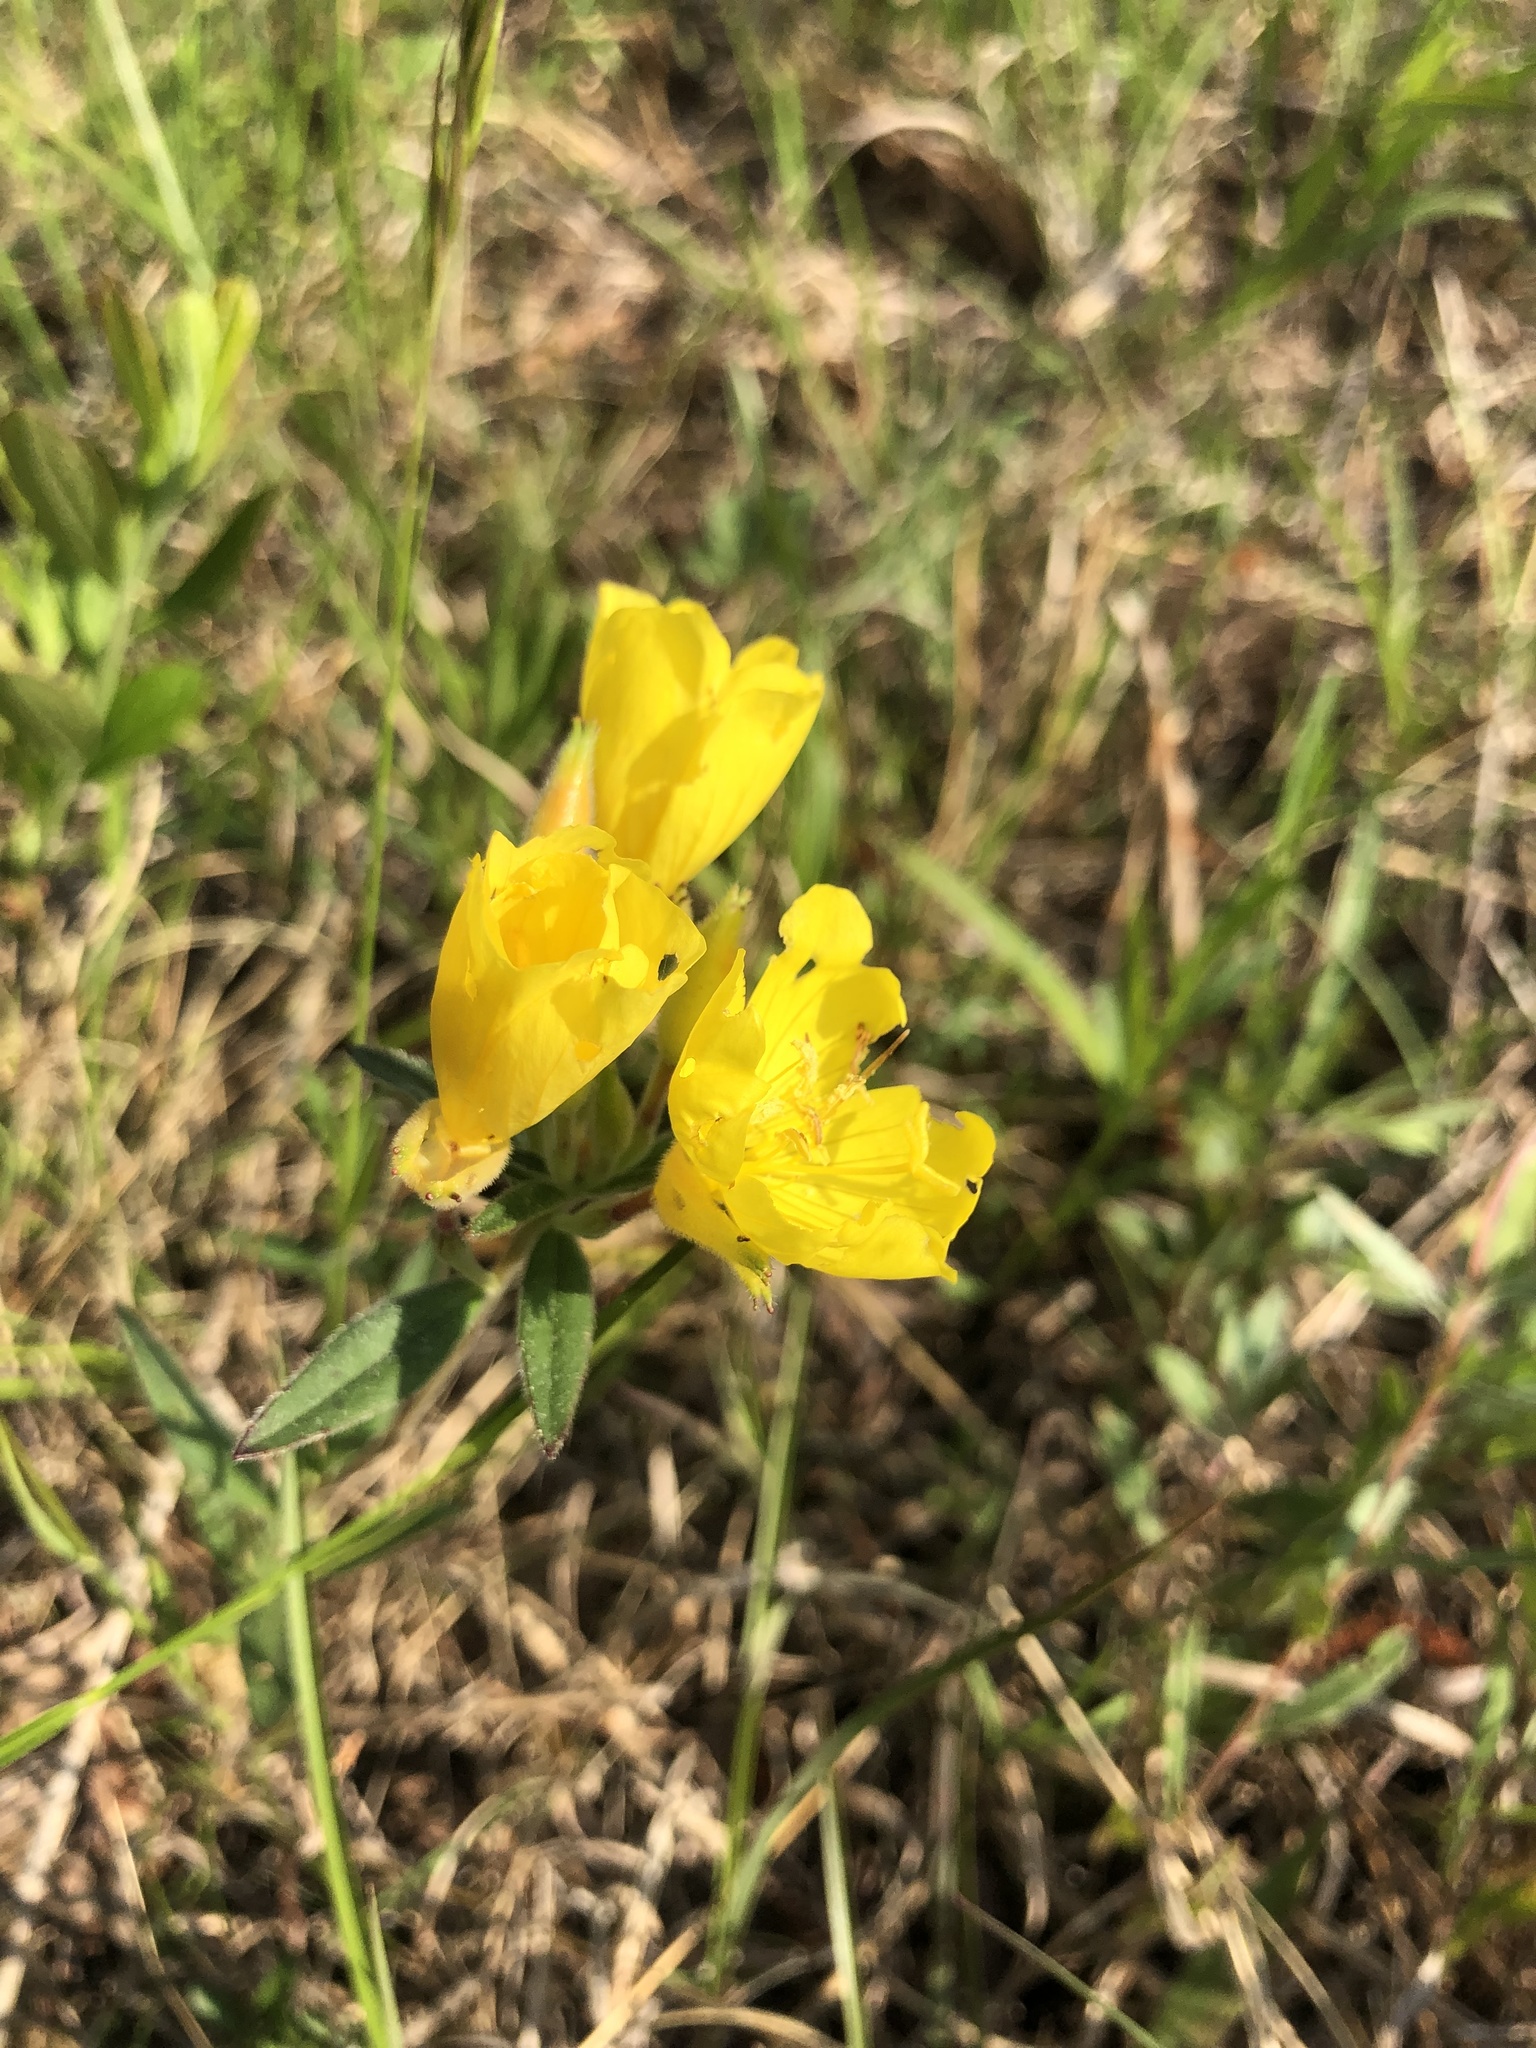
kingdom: Plantae
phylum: Tracheophyta
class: Magnoliopsida
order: Myrtales
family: Onagraceae
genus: Oenothera
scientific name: Oenothera fruticosa
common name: Southern sundrops
